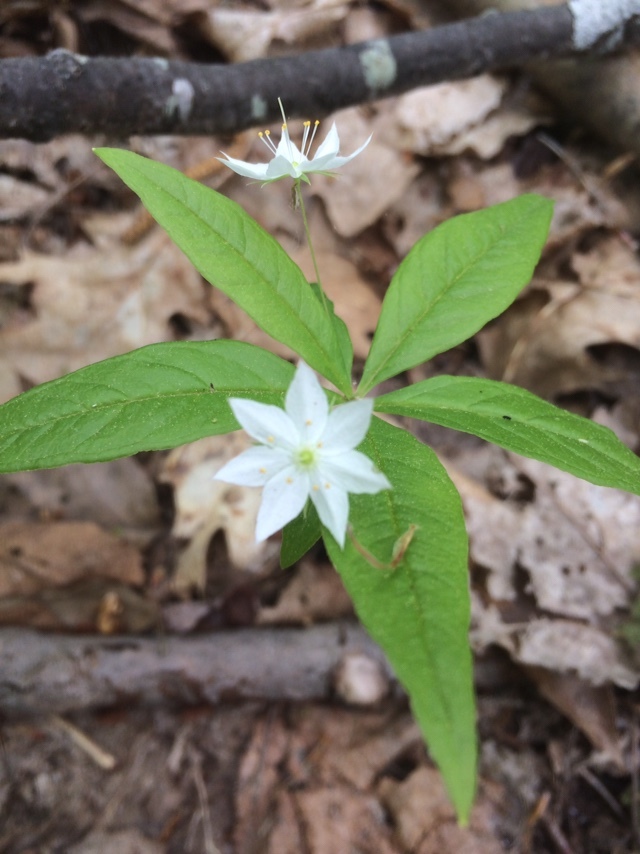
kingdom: Plantae
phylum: Tracheophyta
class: Magnoliopsida
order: Ericales
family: Primulaceae
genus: Lysimachia
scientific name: Lysimachia borealis
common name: American starflower
